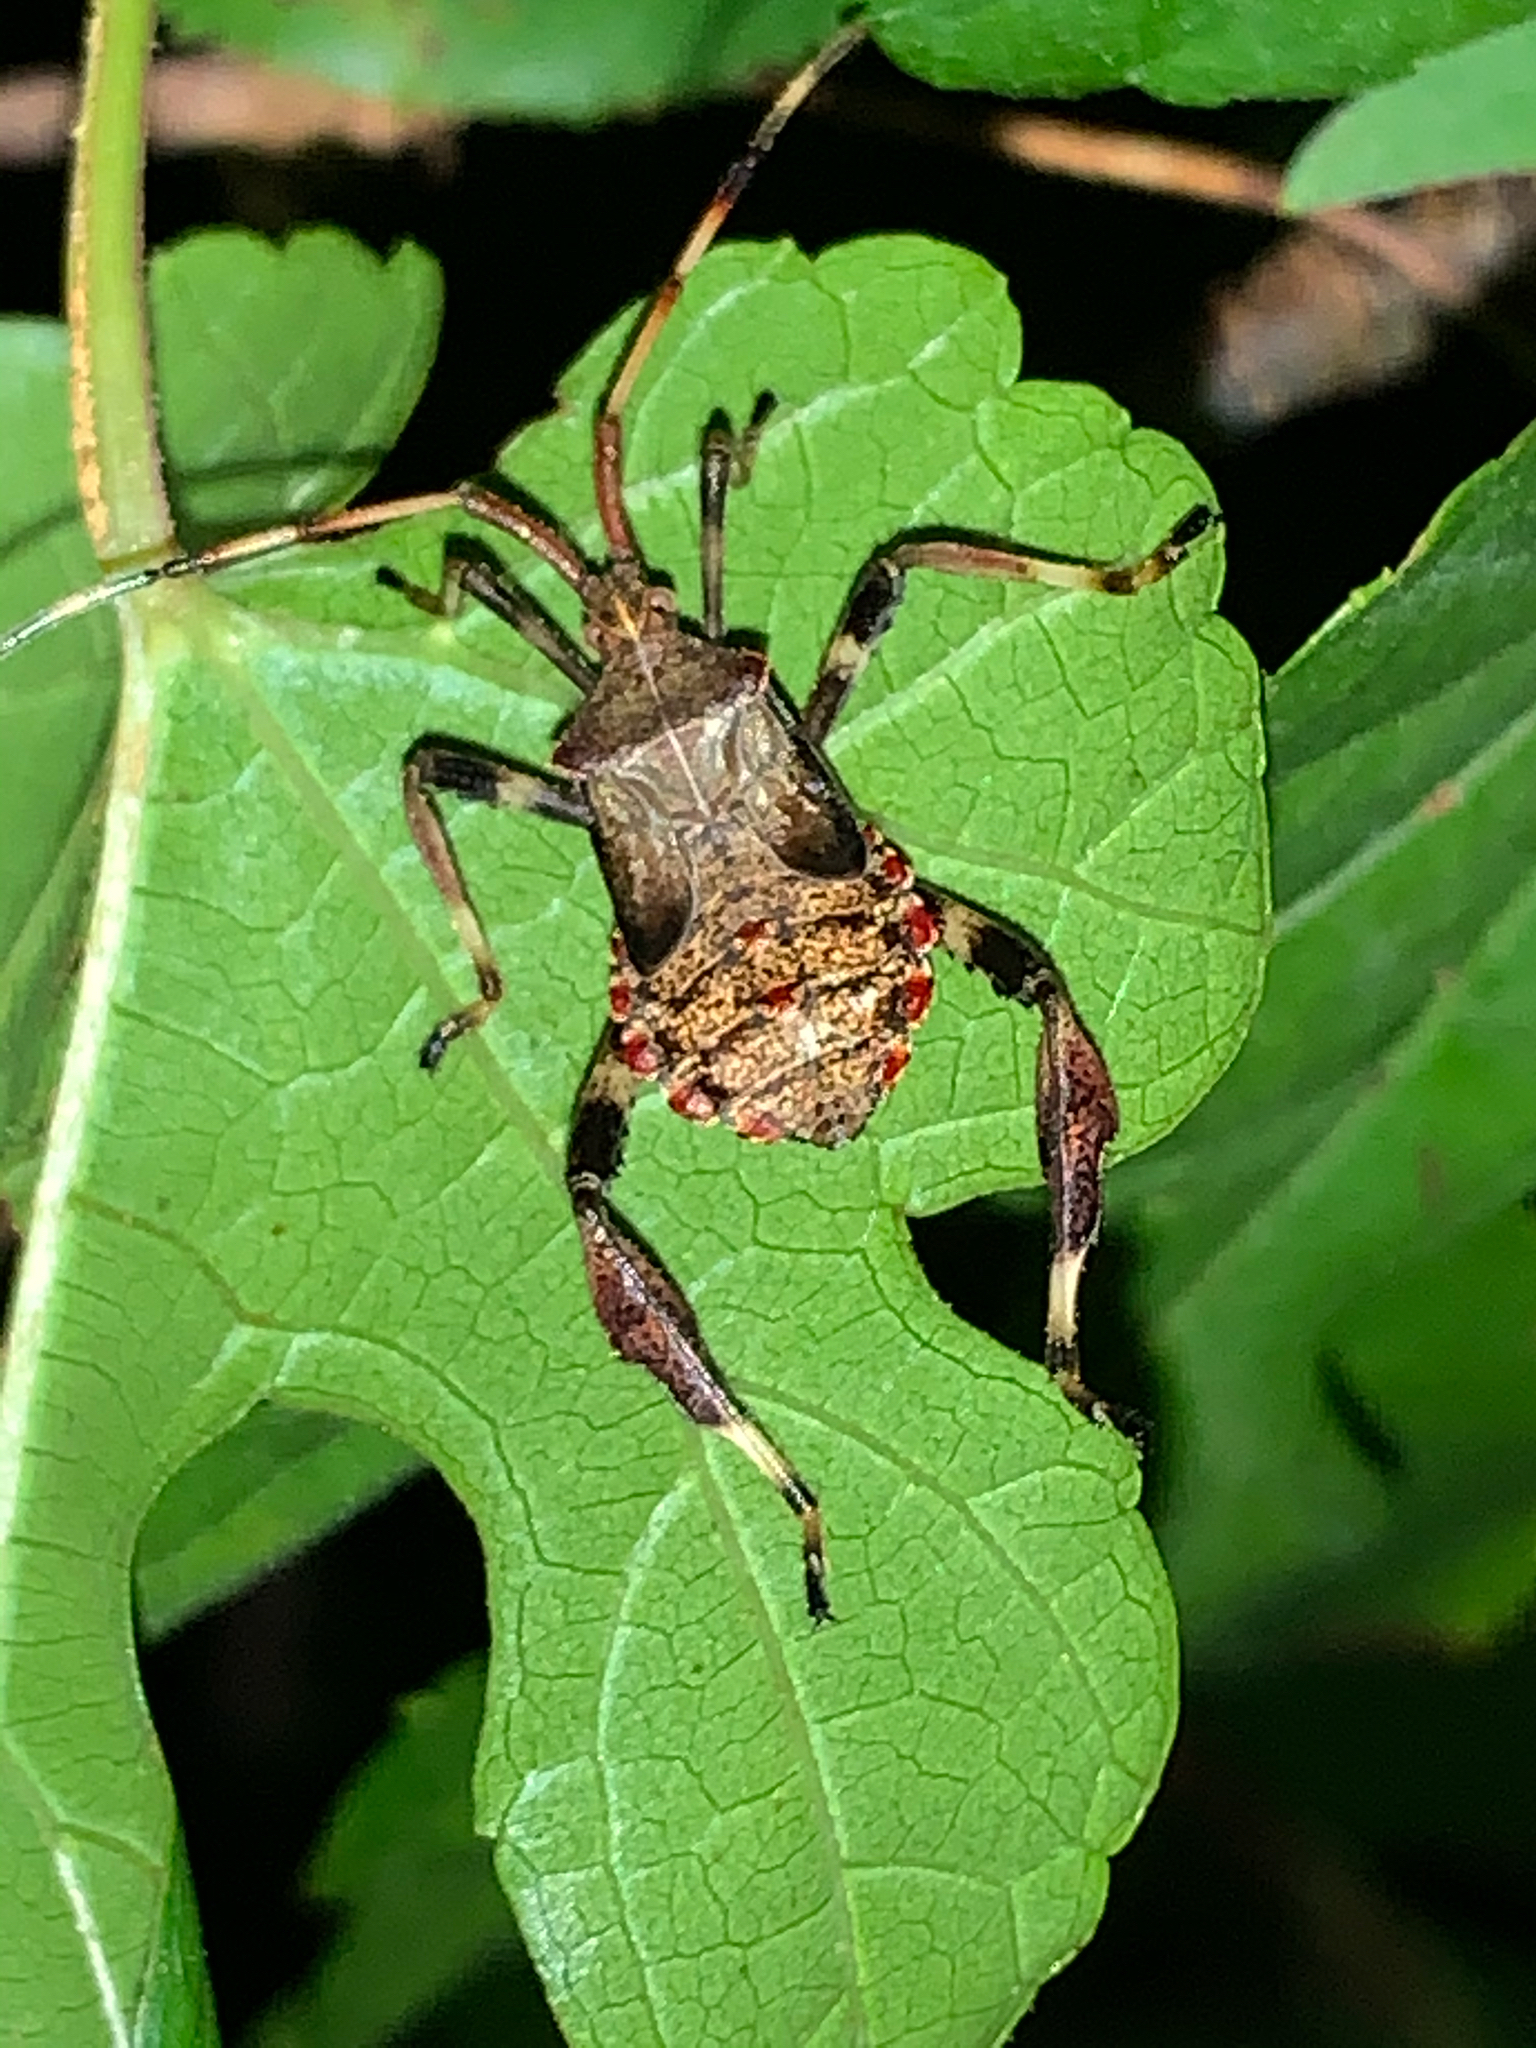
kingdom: Animalia
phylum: Arthropoda
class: Insecta
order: Hemiptera
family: Coreidae
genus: Acanthocephala
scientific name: Acanthocephala terminalis
